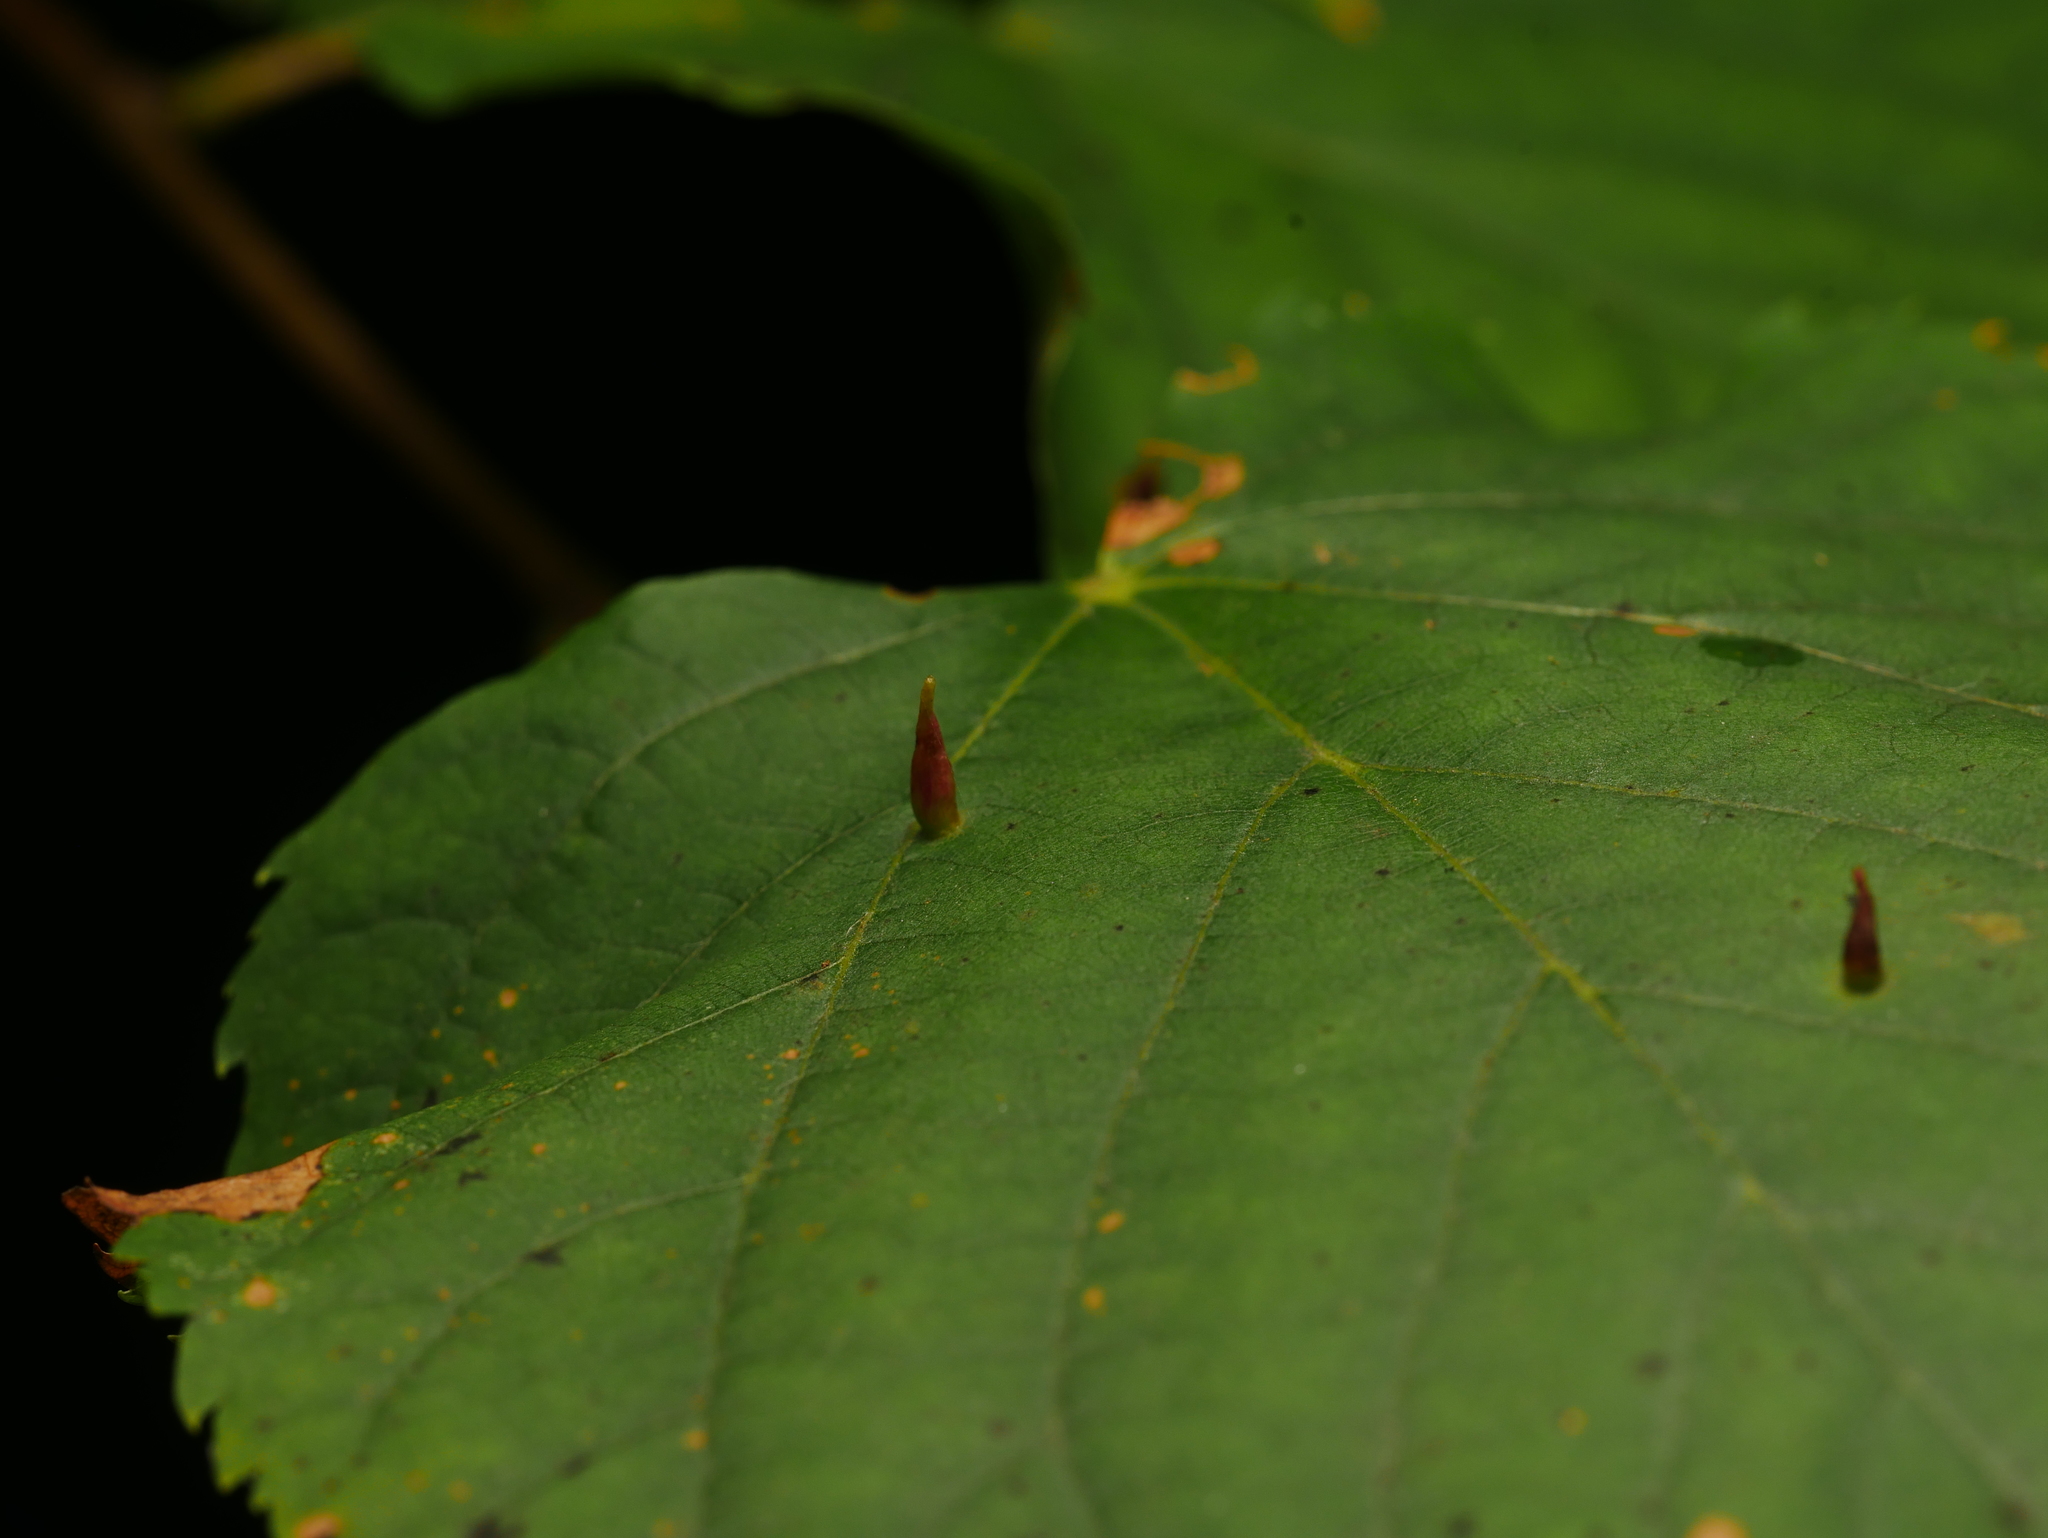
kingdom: Animalia
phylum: Arthropoda
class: Arachnida
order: Trombidiformes
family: Eriophyidae
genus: Eriophyes
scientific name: Eriophyes tiliae
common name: Red nail gall mite
